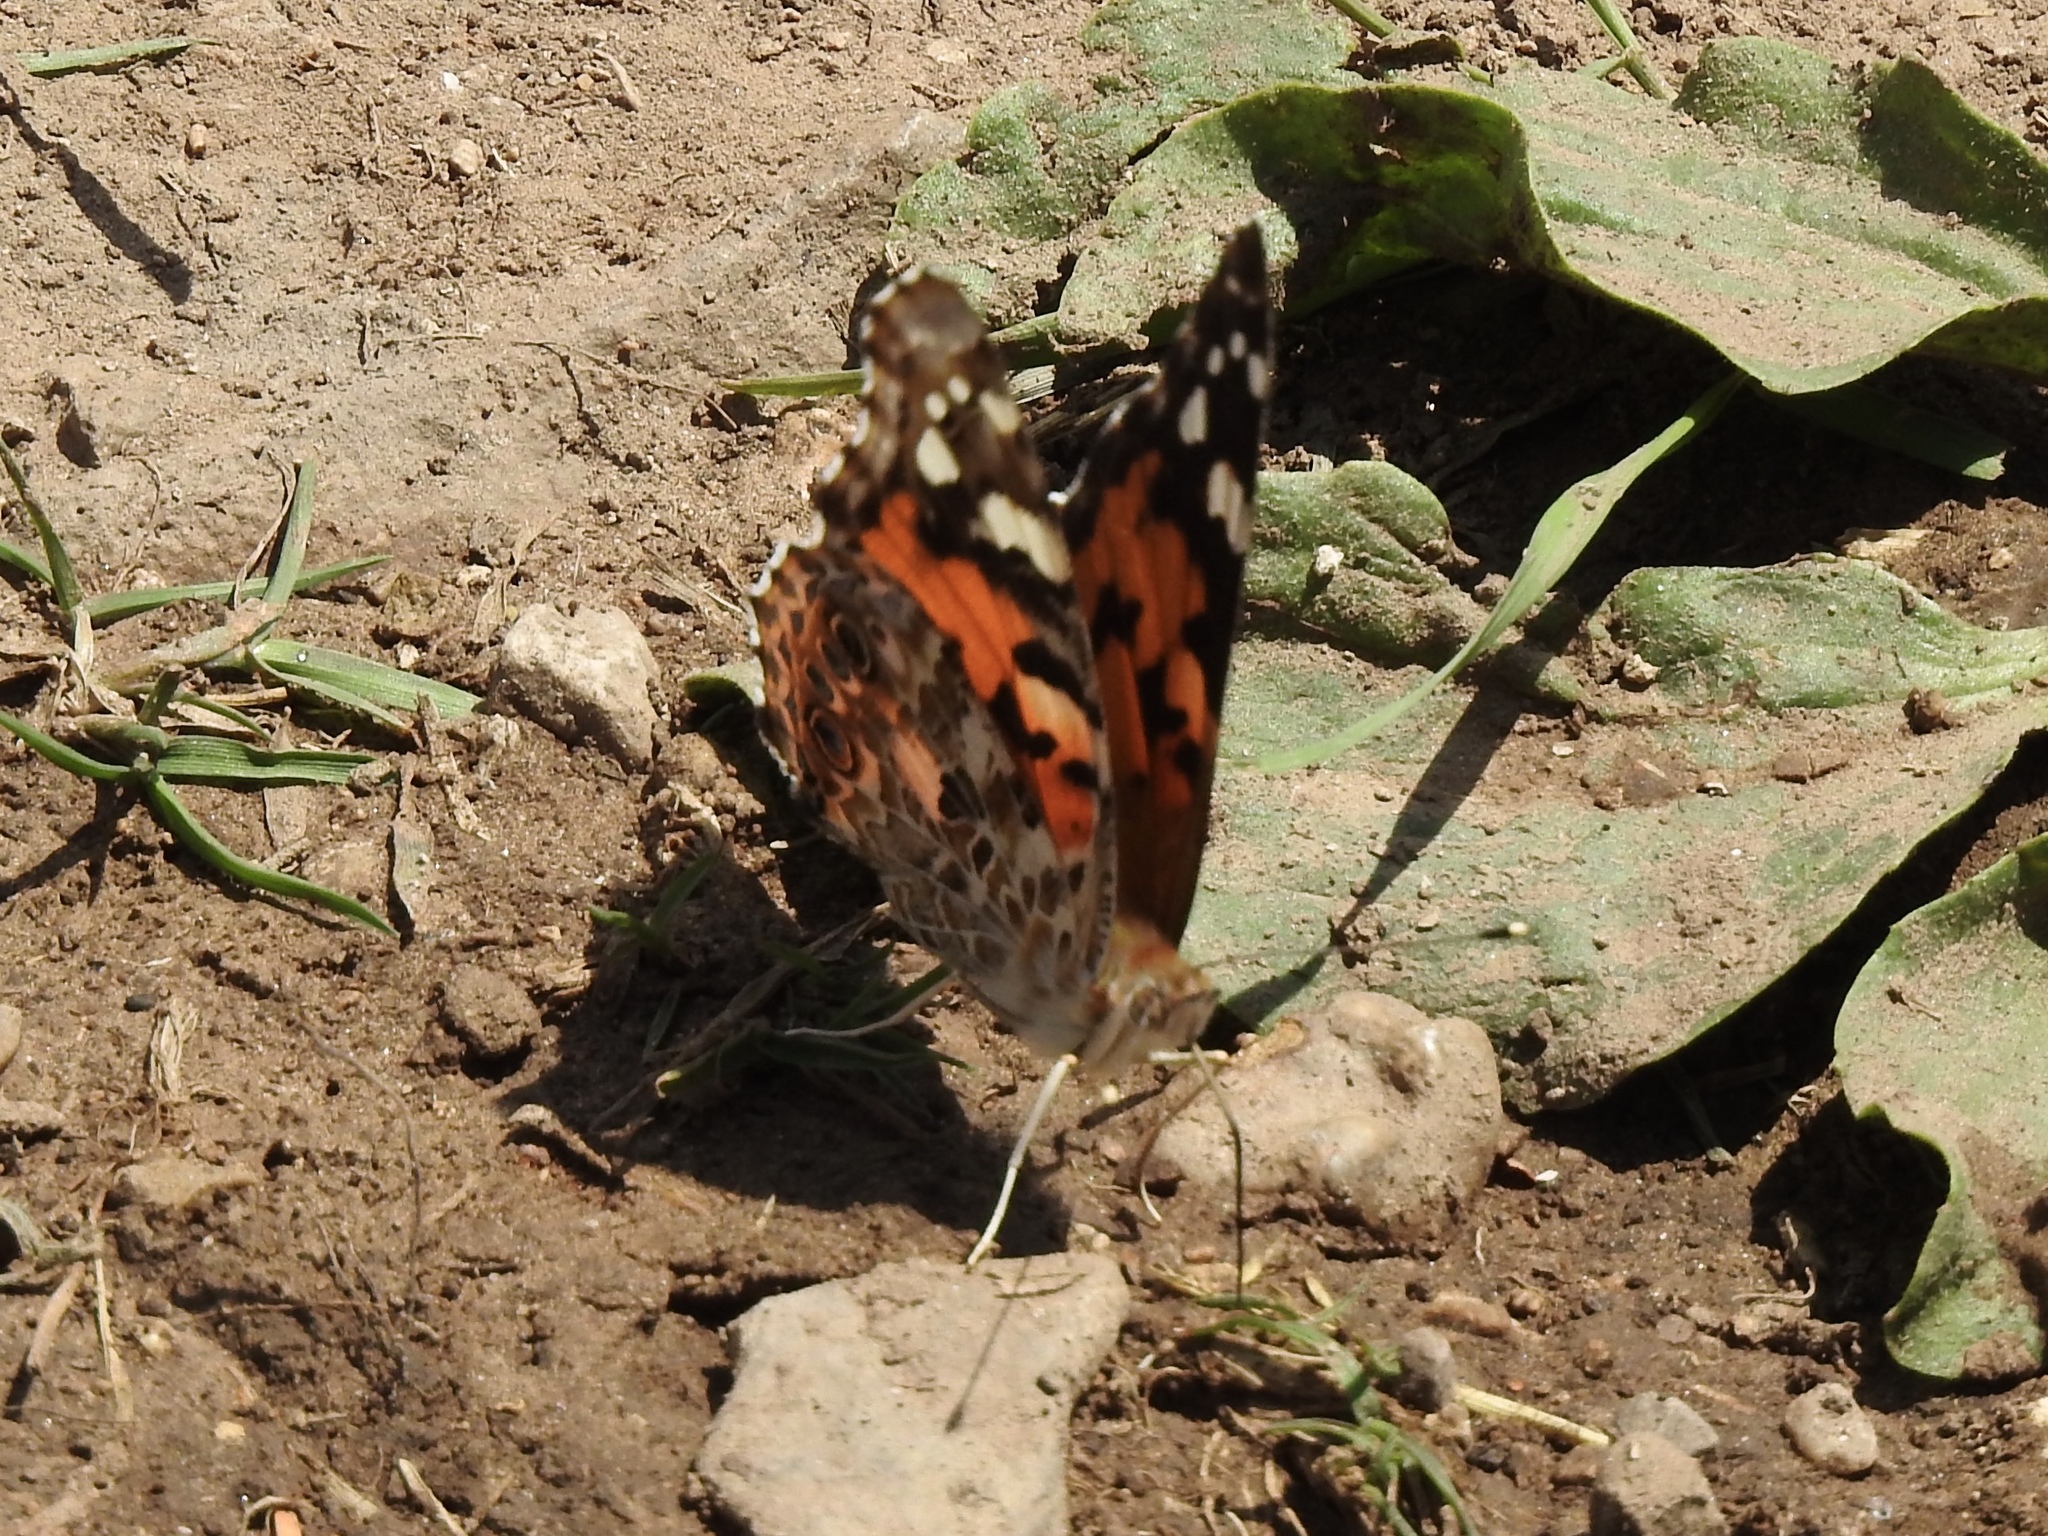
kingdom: Animalia
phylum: Arthropoda
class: Insecta
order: Lepidoptera
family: Nymphalidae
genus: Vanessa
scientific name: Vanessa cardui
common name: Painted lady
